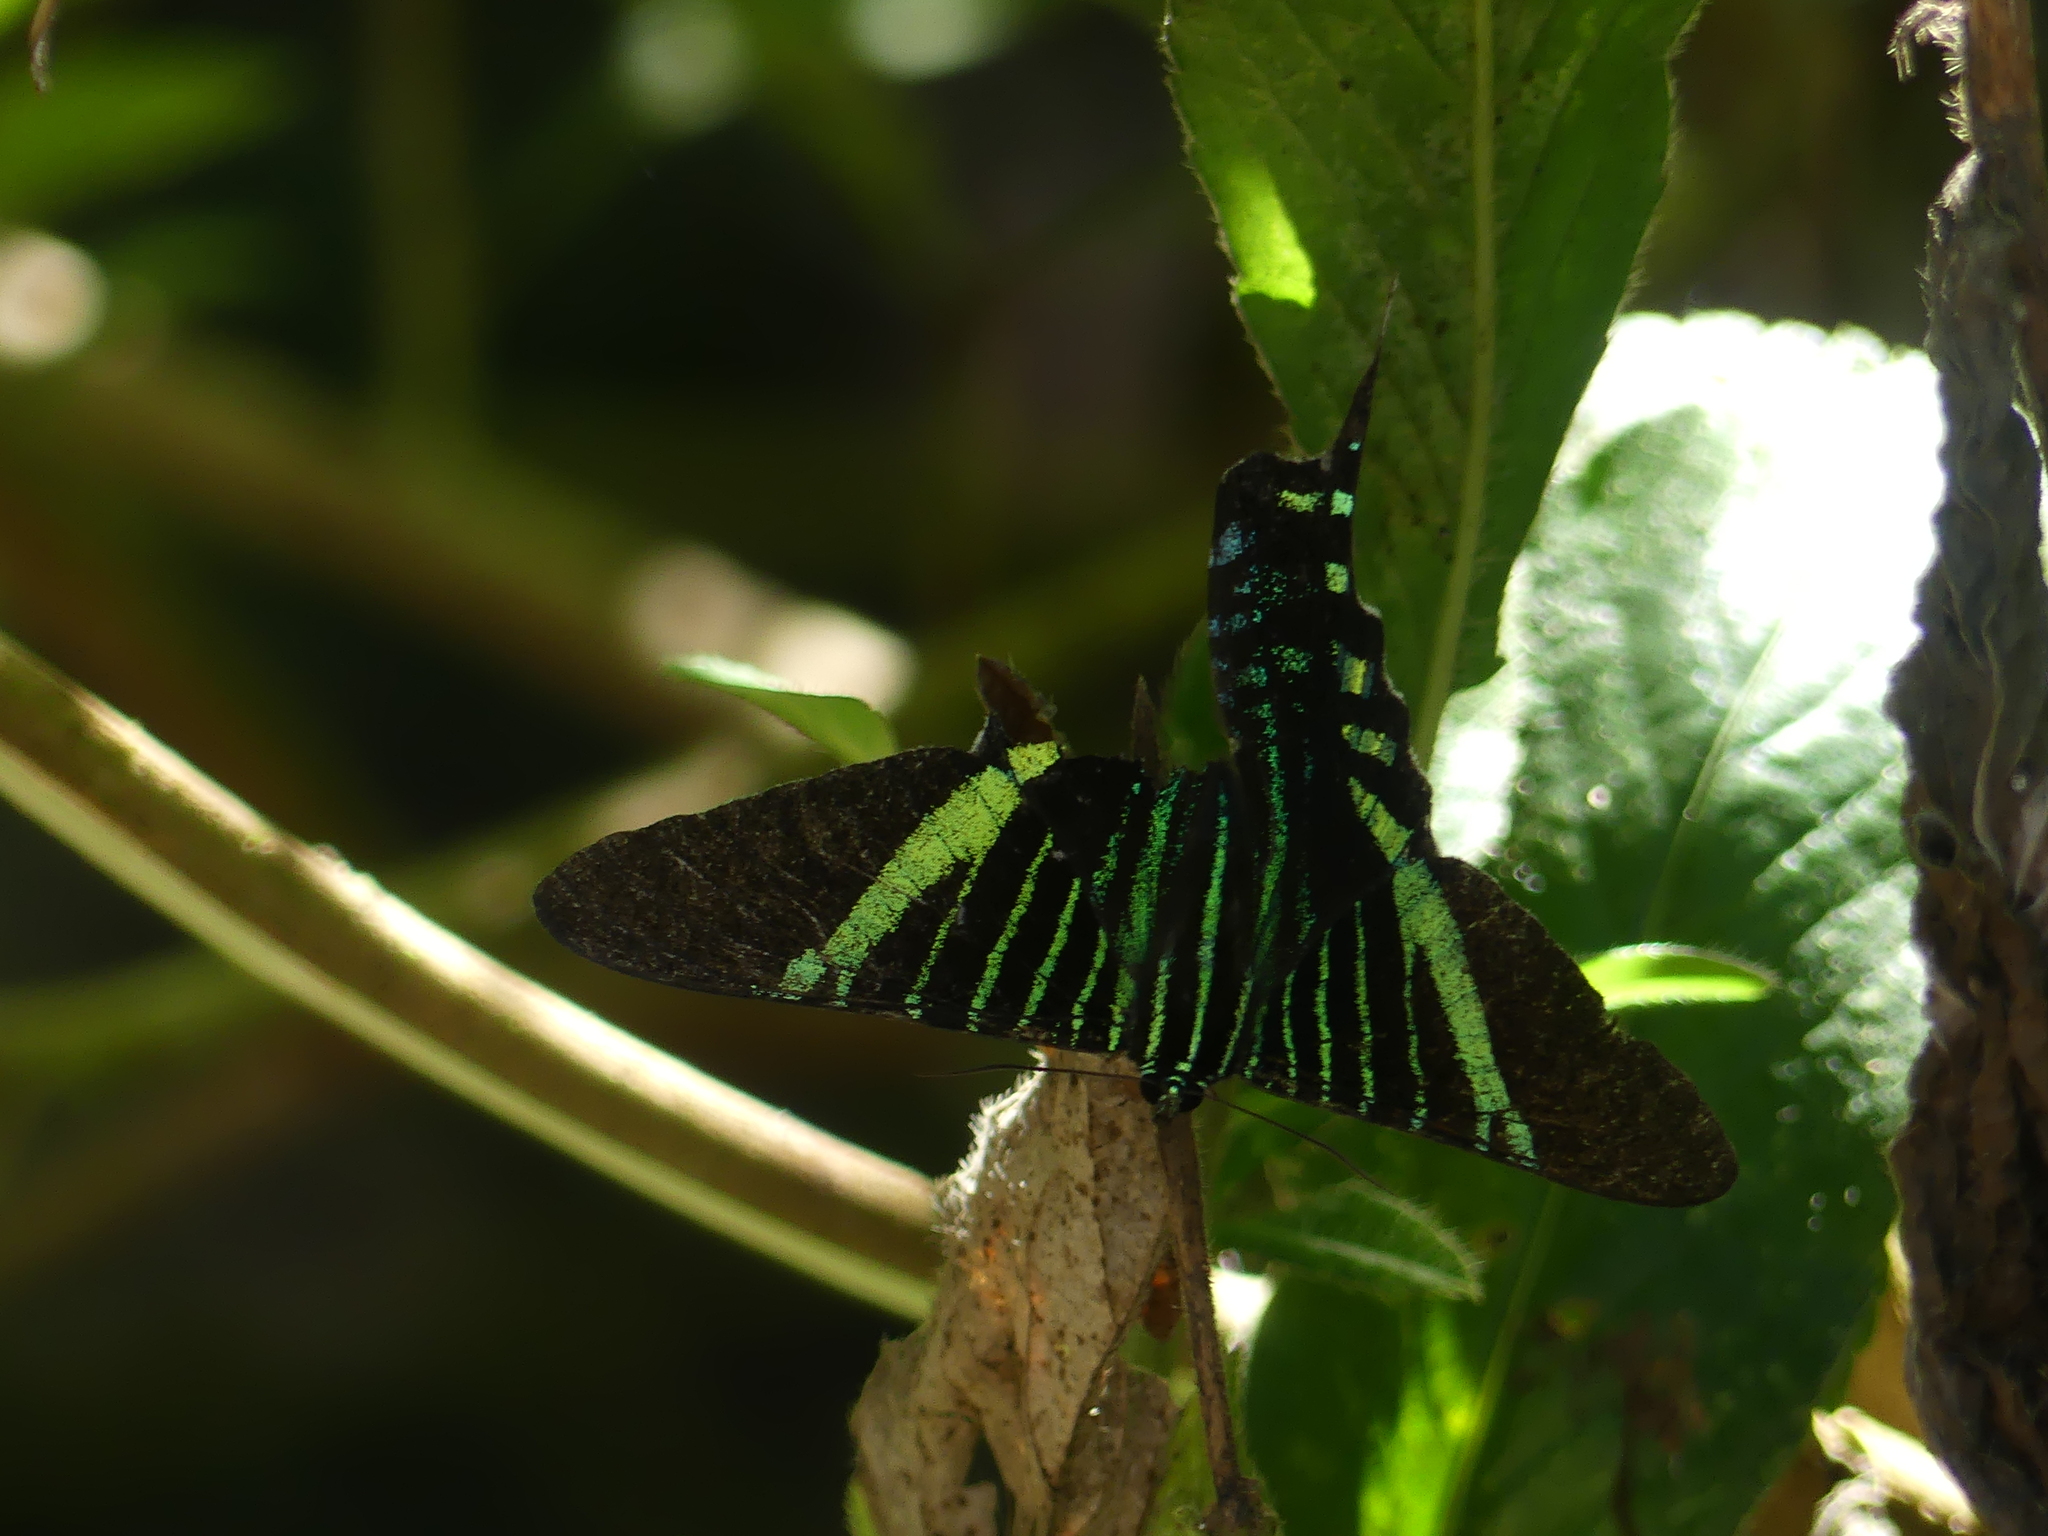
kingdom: Animalia
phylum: Arthropoda
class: Insecta
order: Lepidoptera
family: Uraniidae
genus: Urania
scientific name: Urania fulgens
